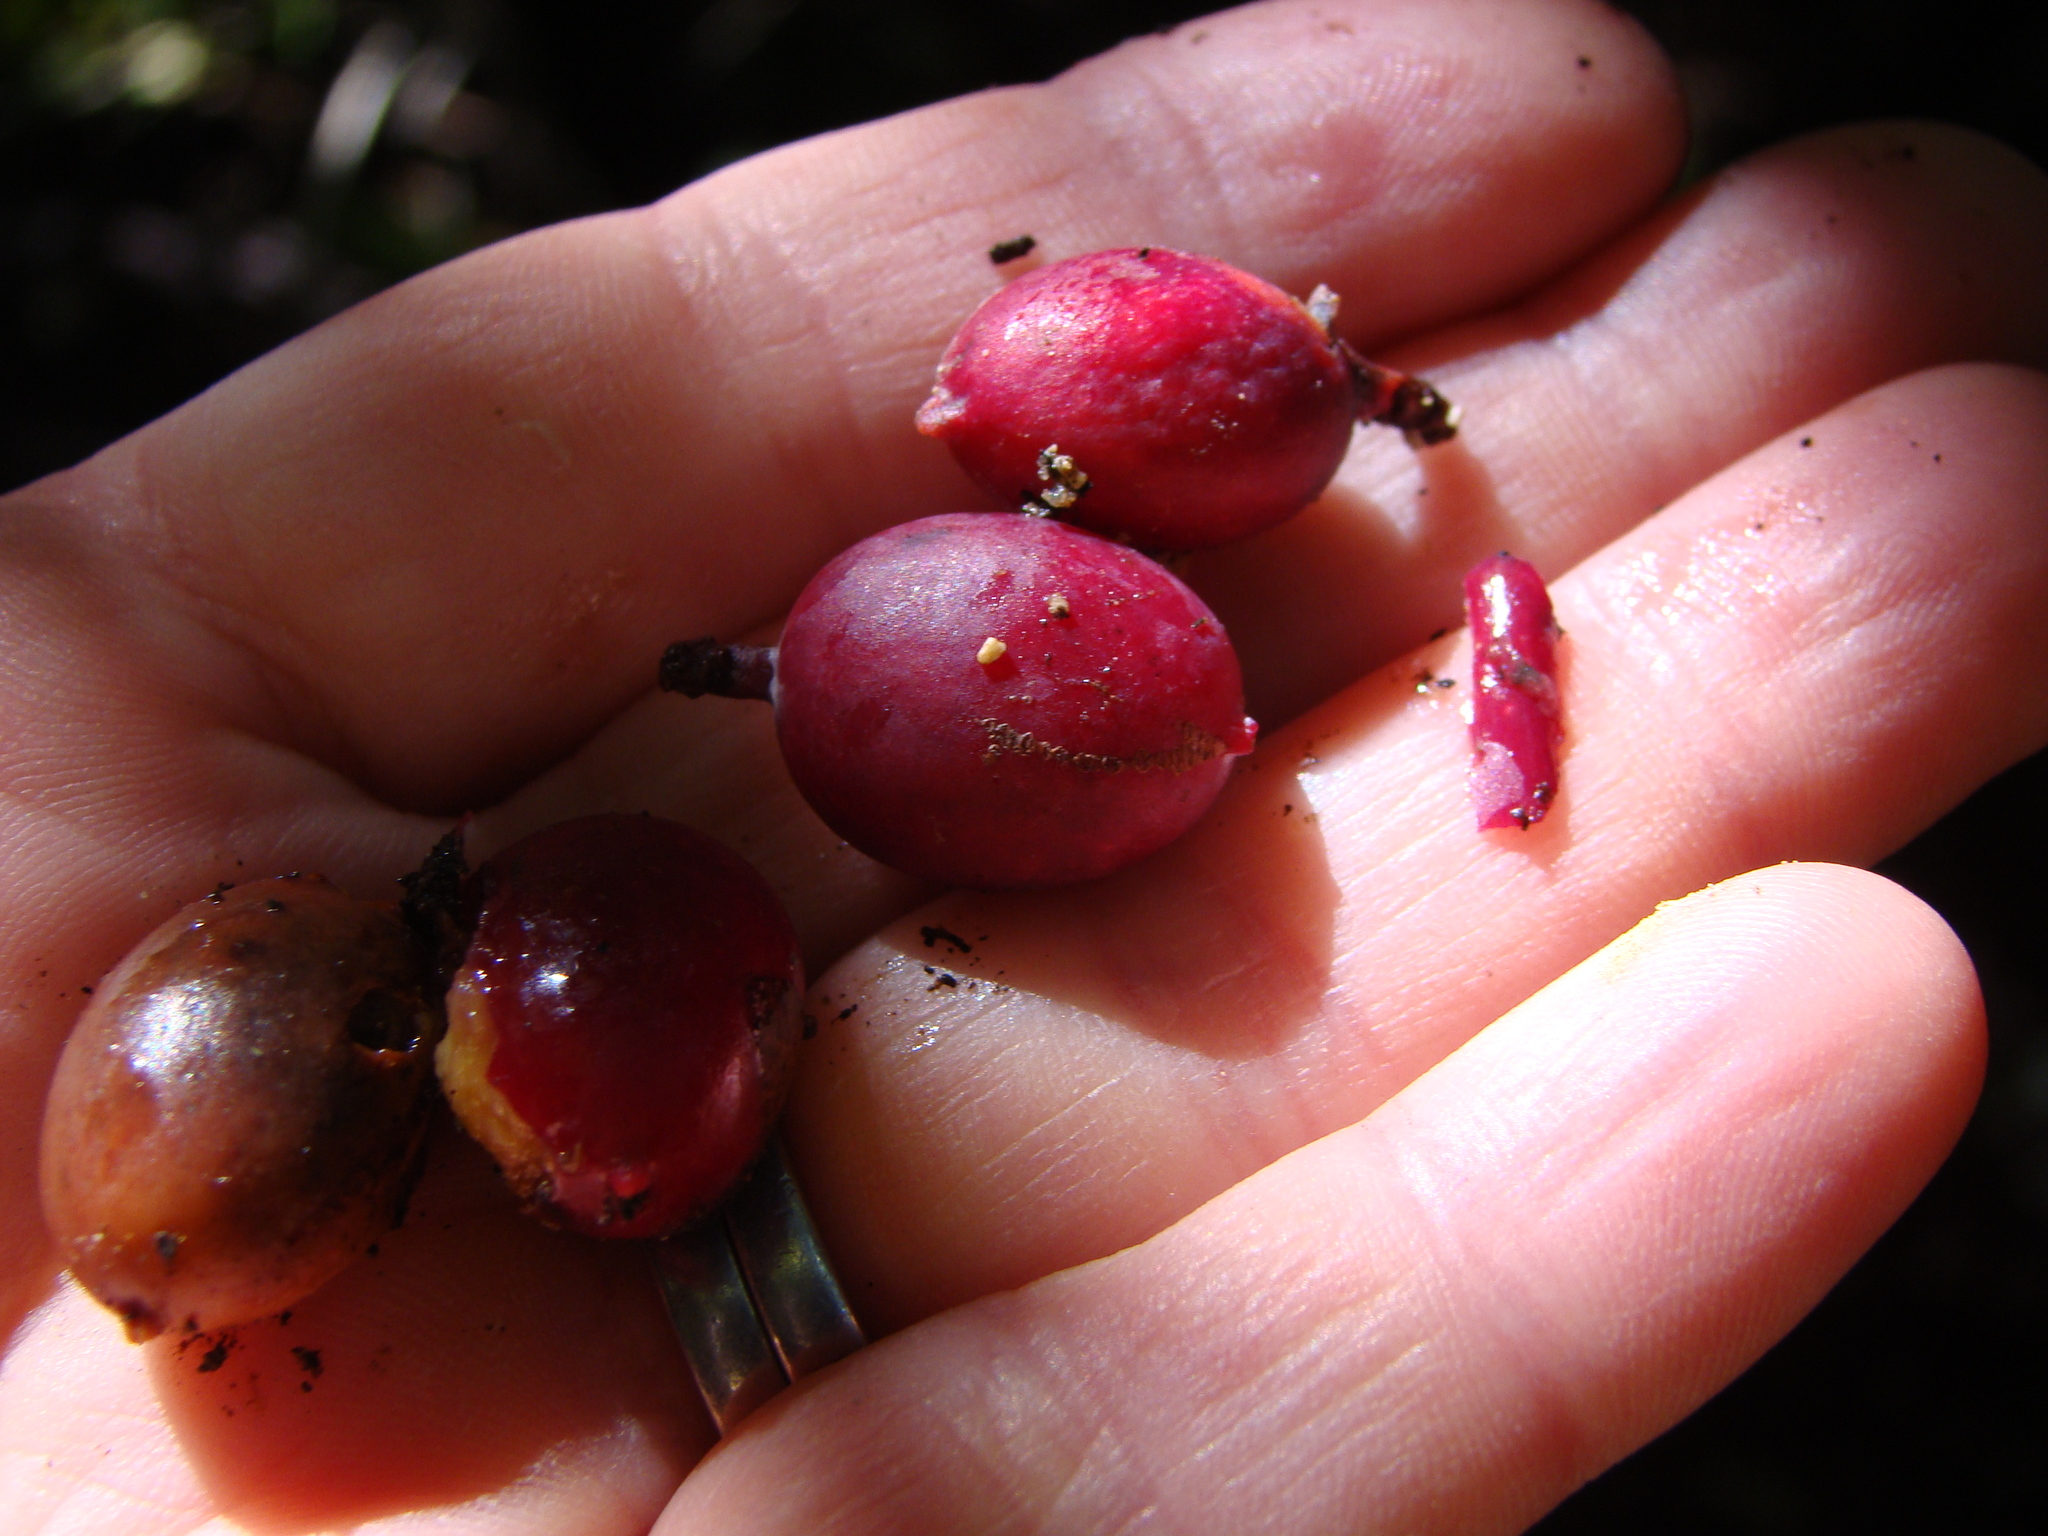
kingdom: Plantae
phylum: Tracheophyta
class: Liliopsida
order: Liliales
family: Ripogonaceae
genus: Ripogonum
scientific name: Ripogonum scandens
